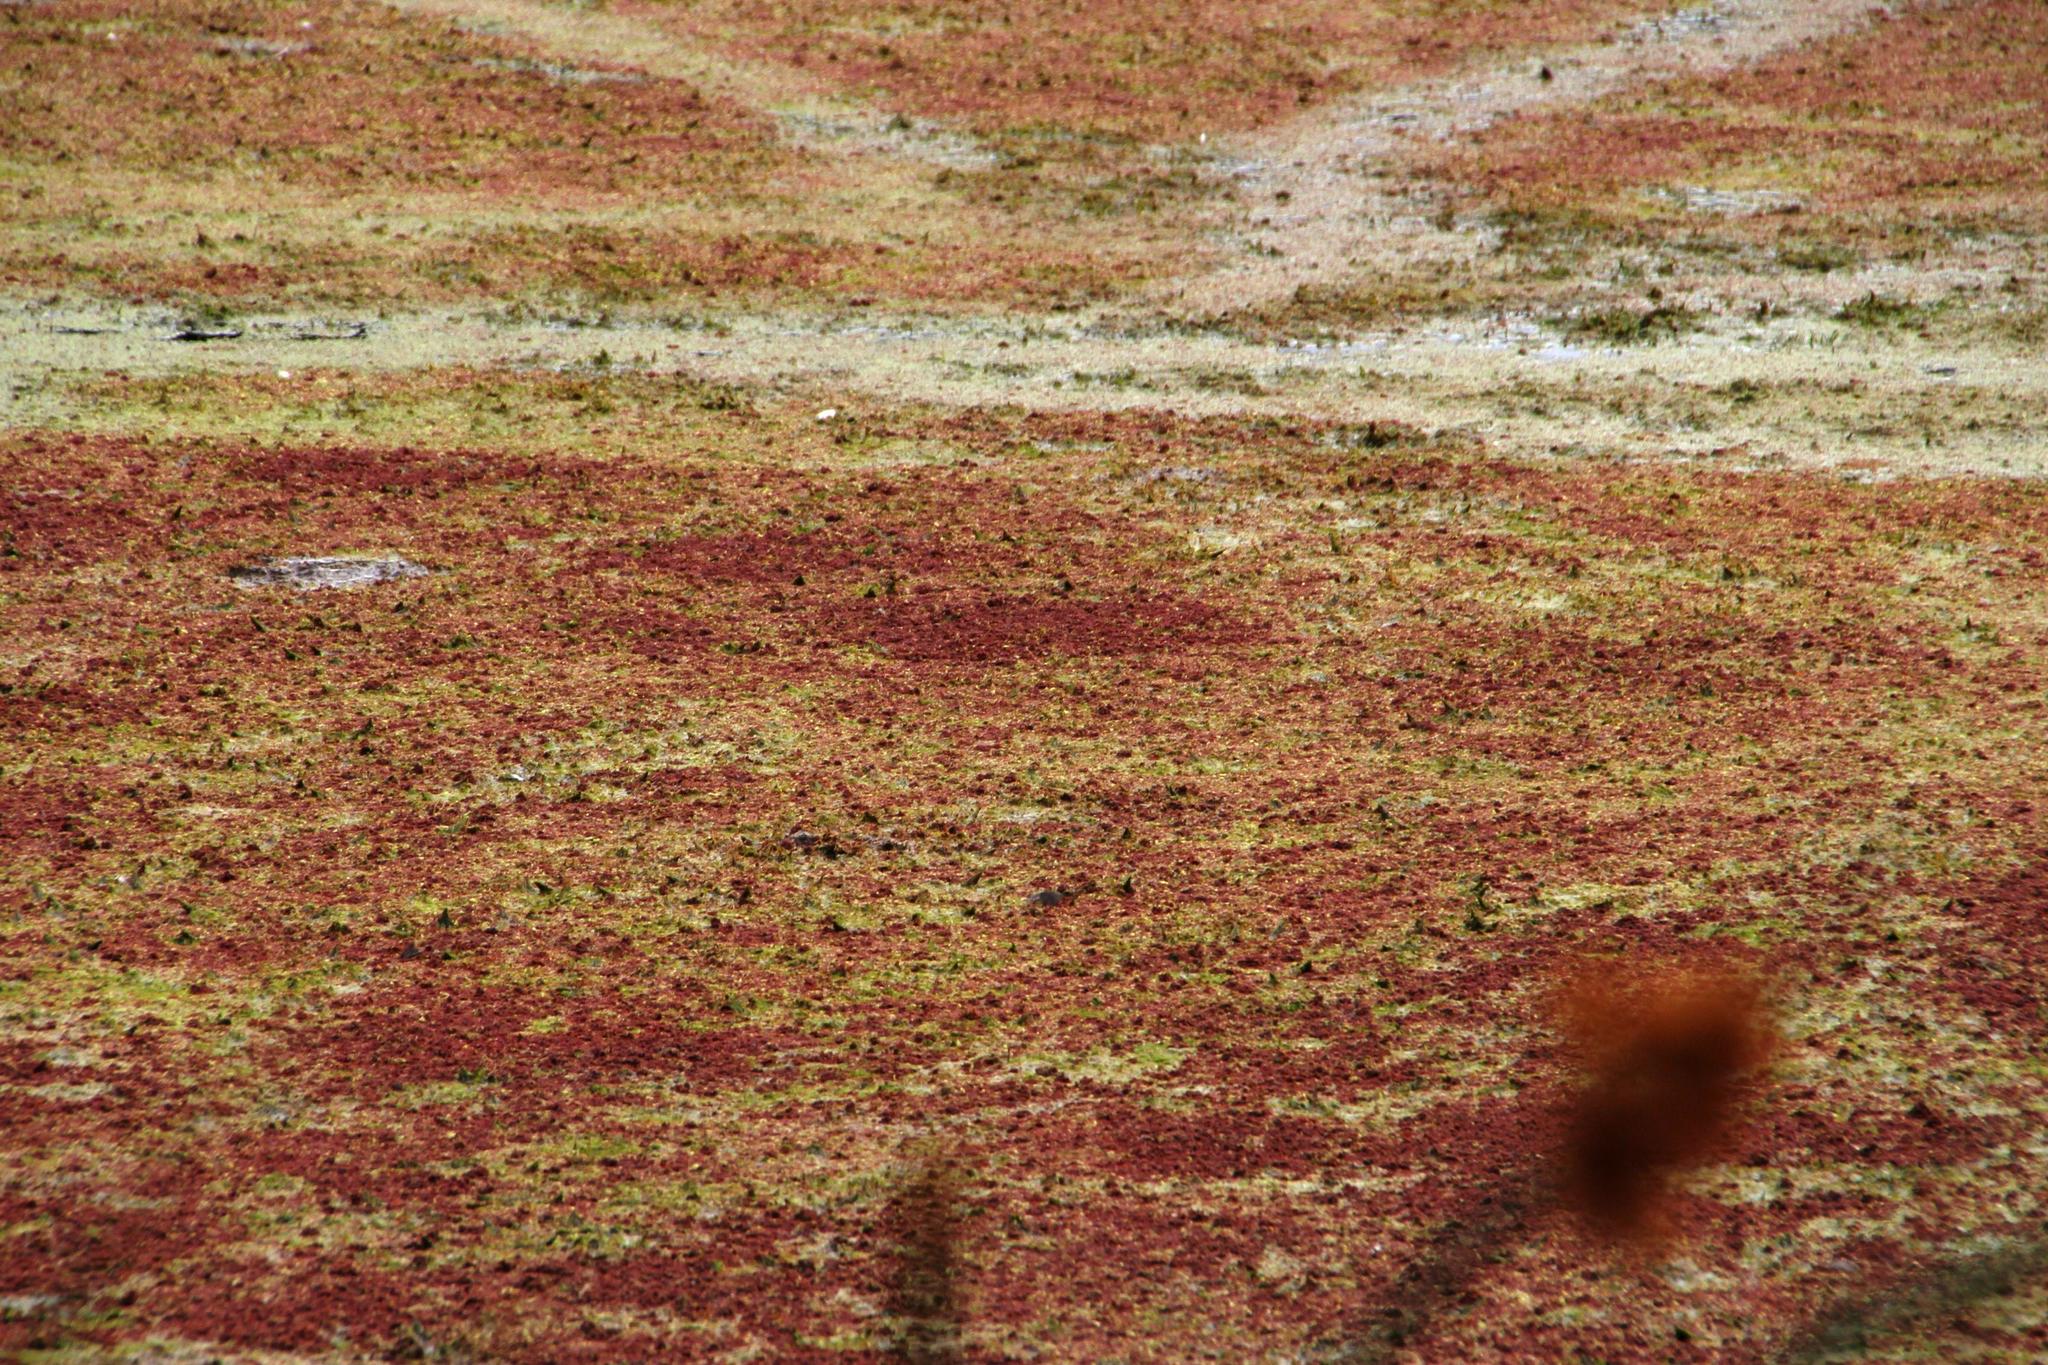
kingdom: Plantae
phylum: Tracheophyta
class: Polypodiopsida
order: Salviniales
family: Salviniaceae
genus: Azolla
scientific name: Azolla filiculoides
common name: Water fern
